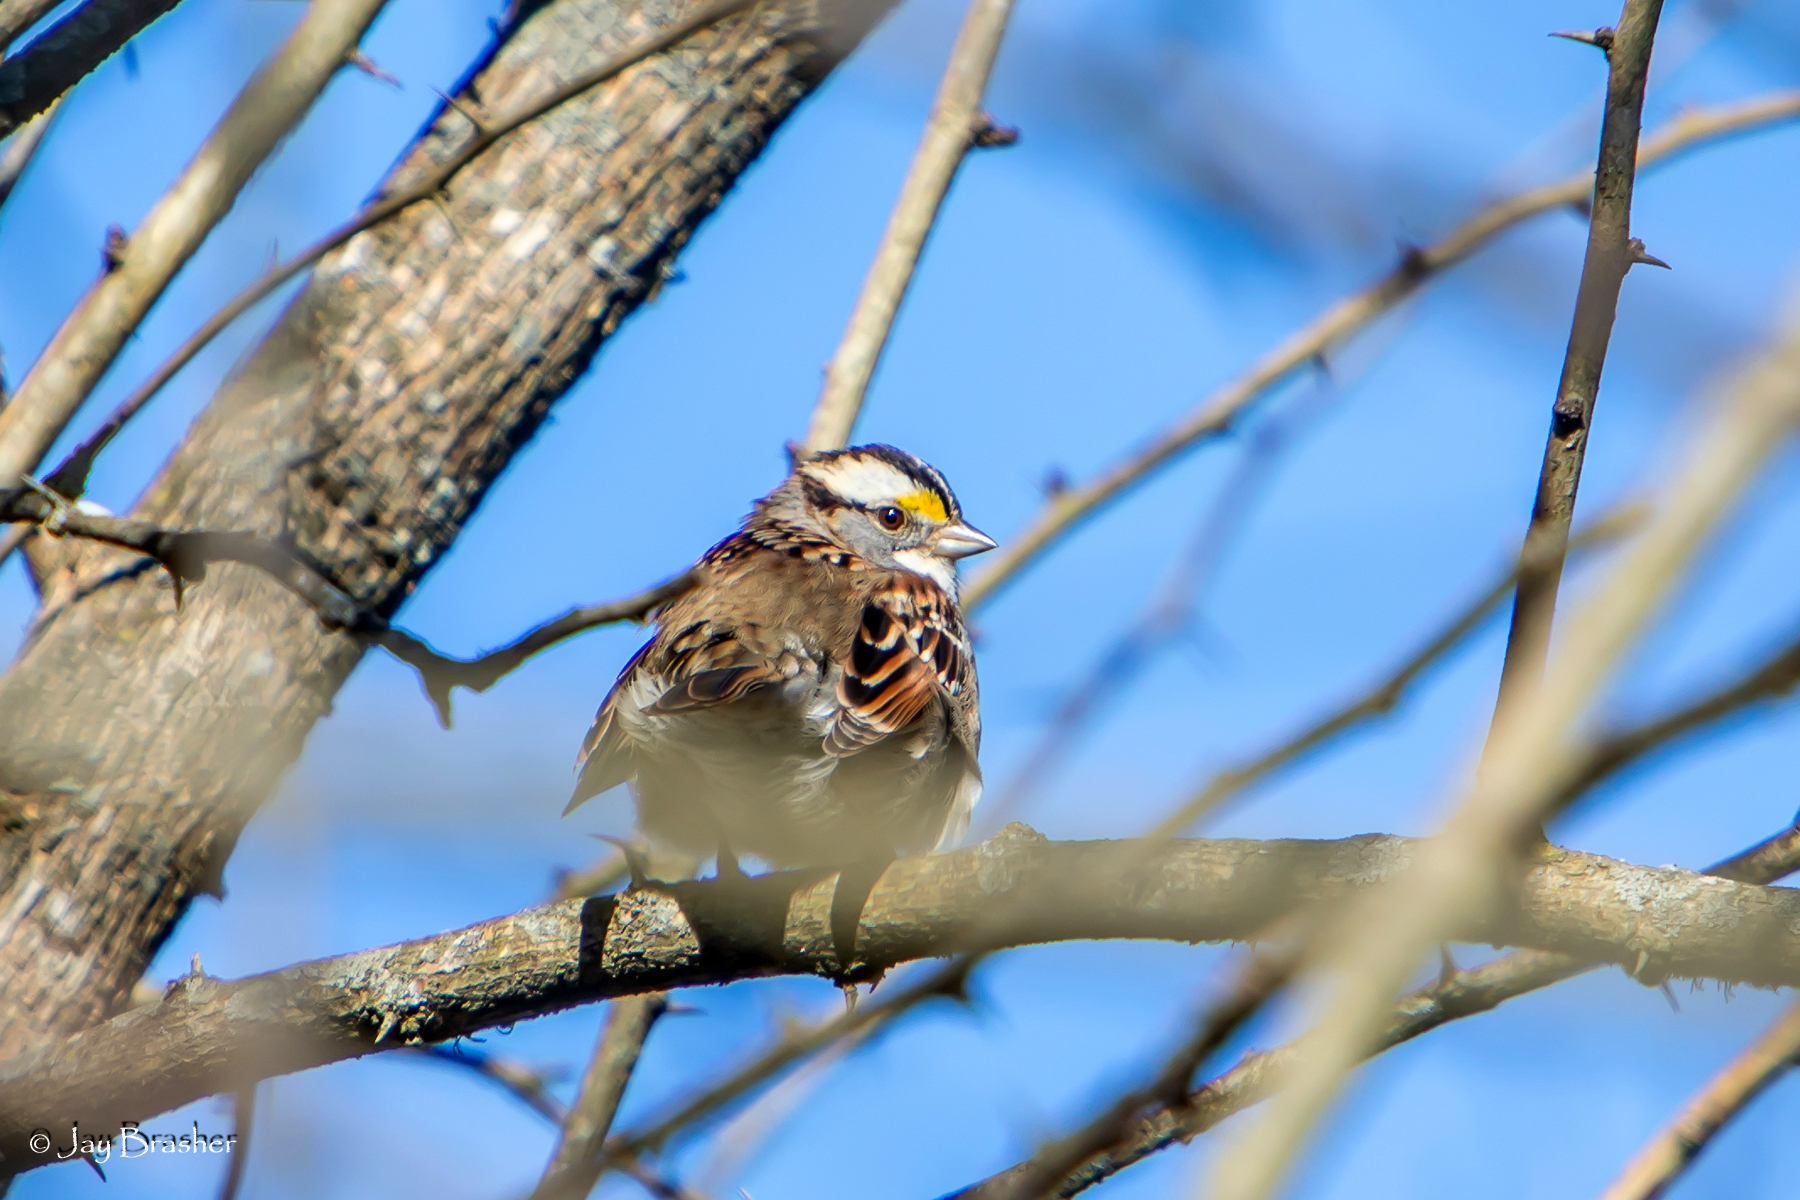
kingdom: Animalia
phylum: Chordata
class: Aves
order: Passeriformes
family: Passerellidae
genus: Zonotrichia
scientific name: Zonotrichia albicollis
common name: White-throated sparrow
